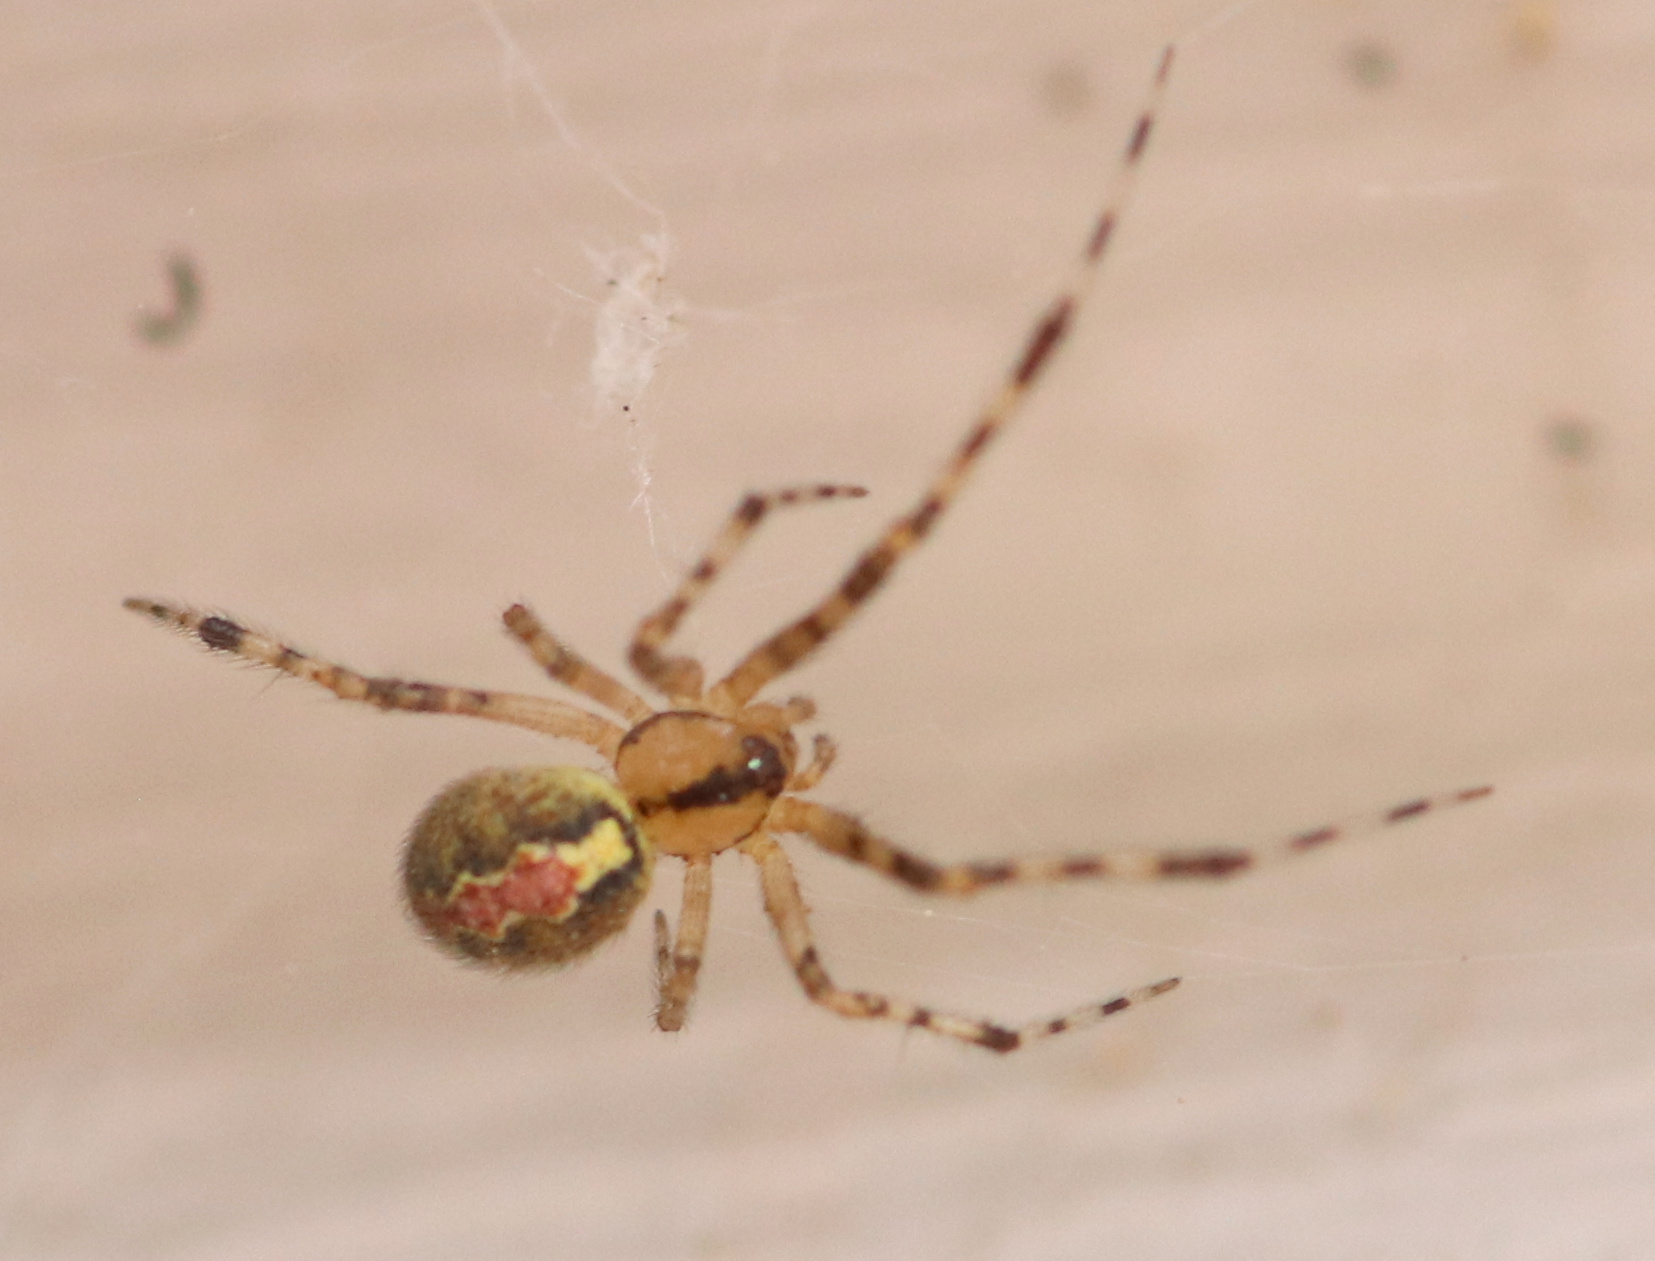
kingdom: Animalia
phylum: Arthropoda
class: Arachnida
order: Araneae
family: Theridiidae
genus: Theridion
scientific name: Theridion murarium
